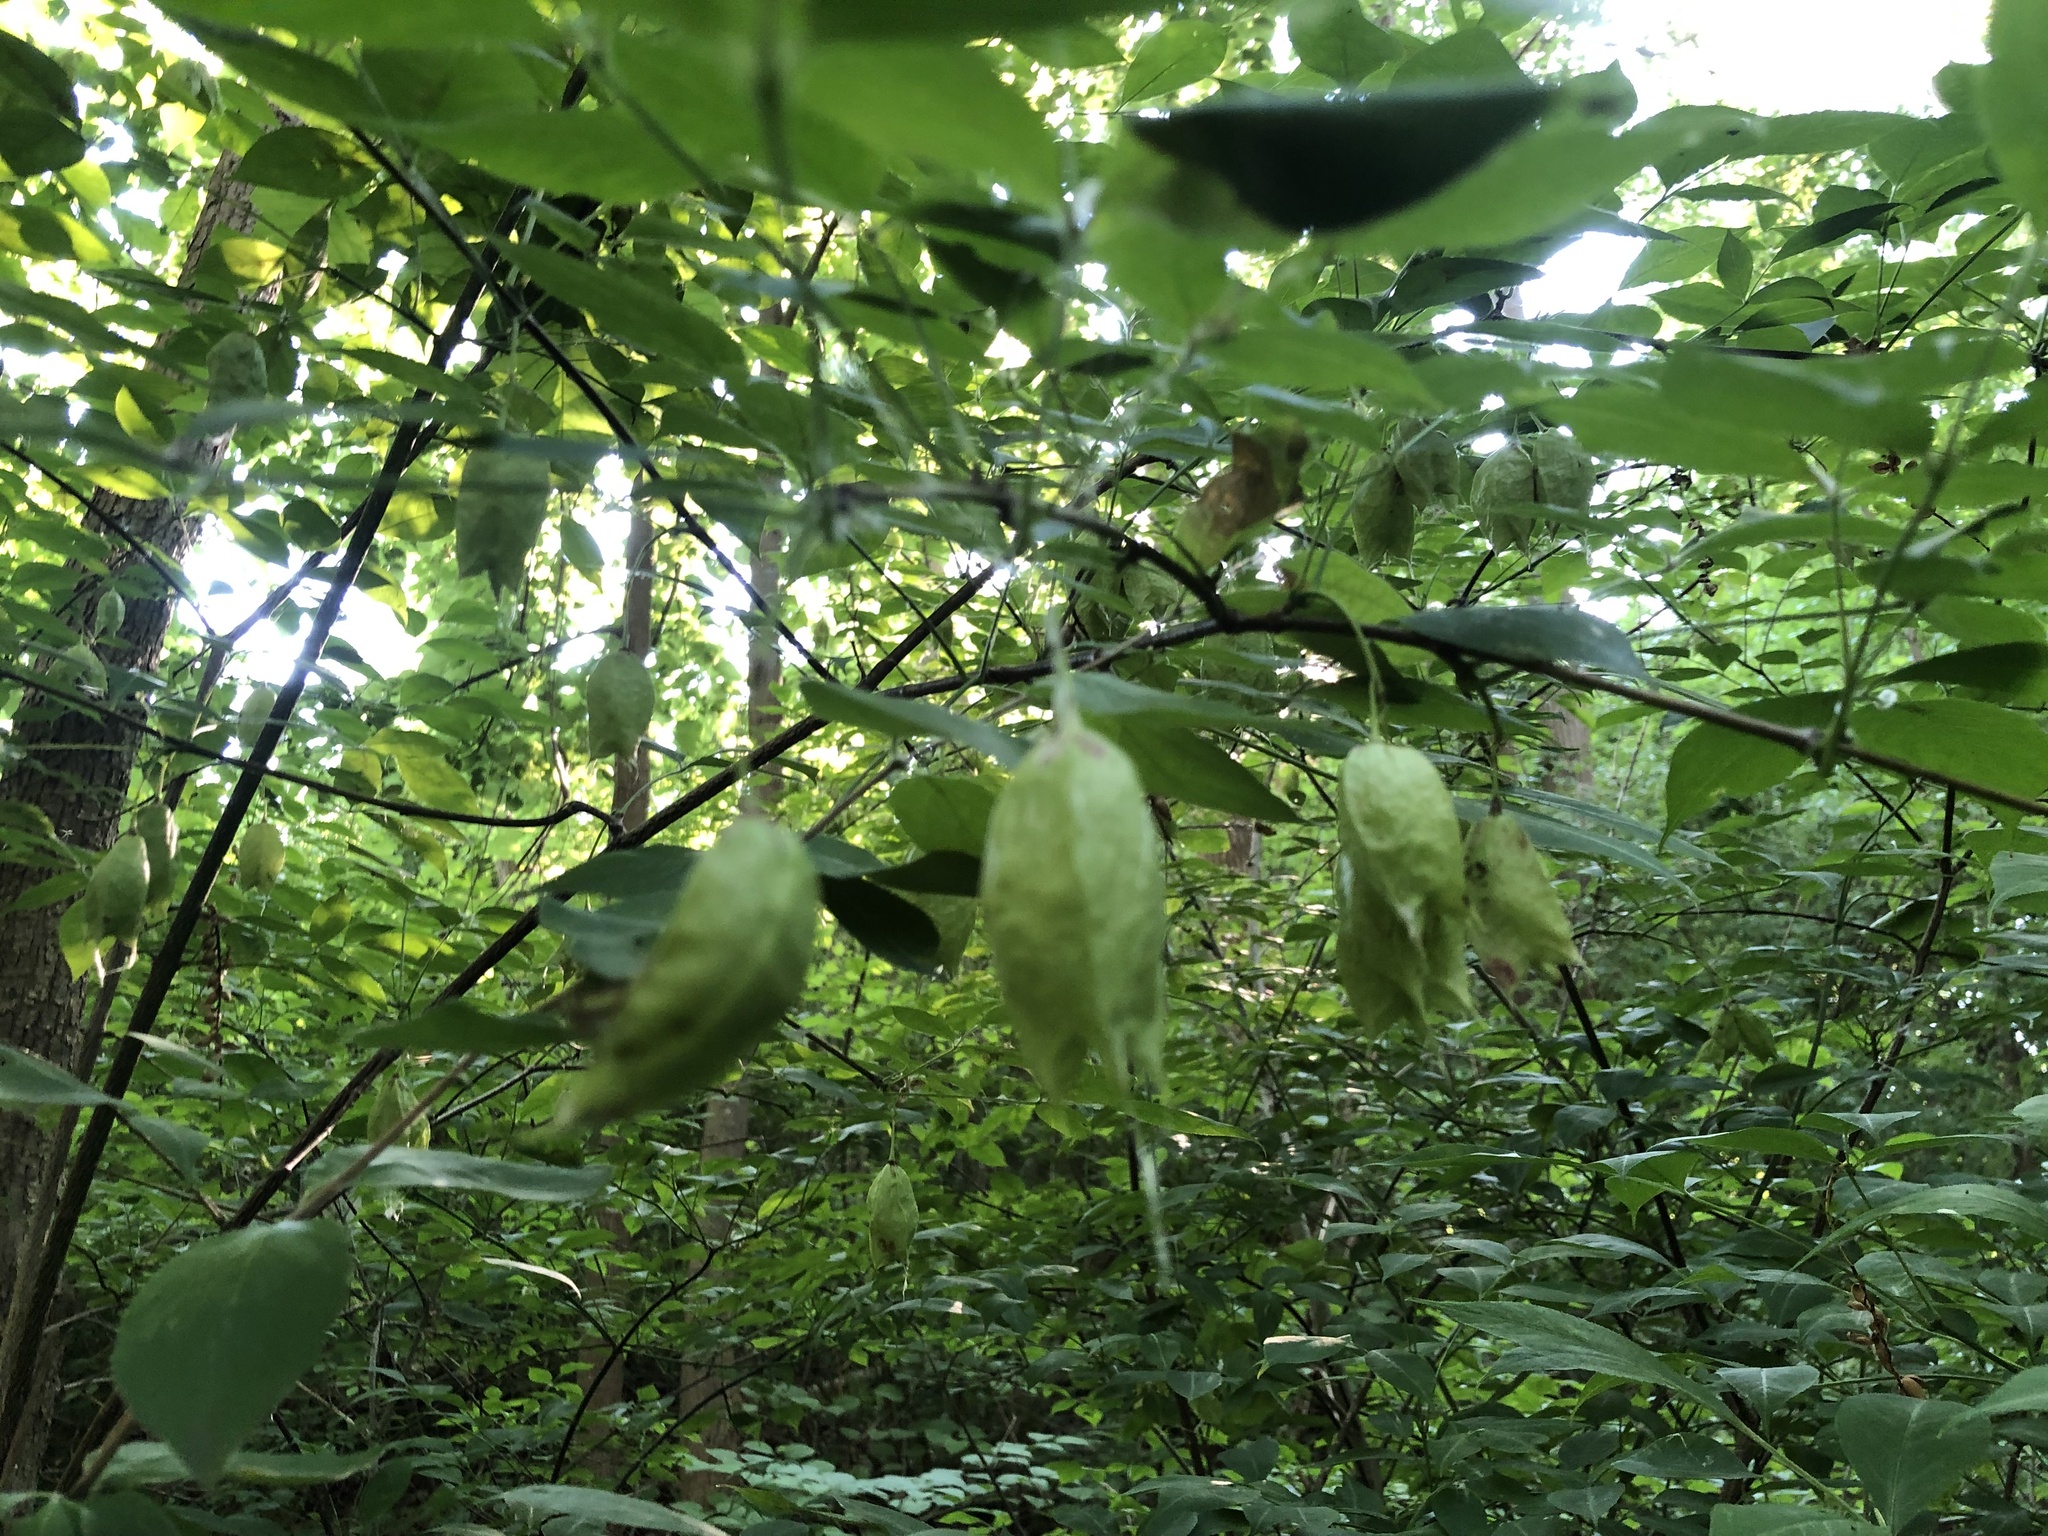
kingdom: Plantae
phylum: Tracheophyta
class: Magnoliopsida
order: Crossosomatales
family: Staphyleaceae
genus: Staphylea
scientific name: Staphylea trifolia
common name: American bladdernut
